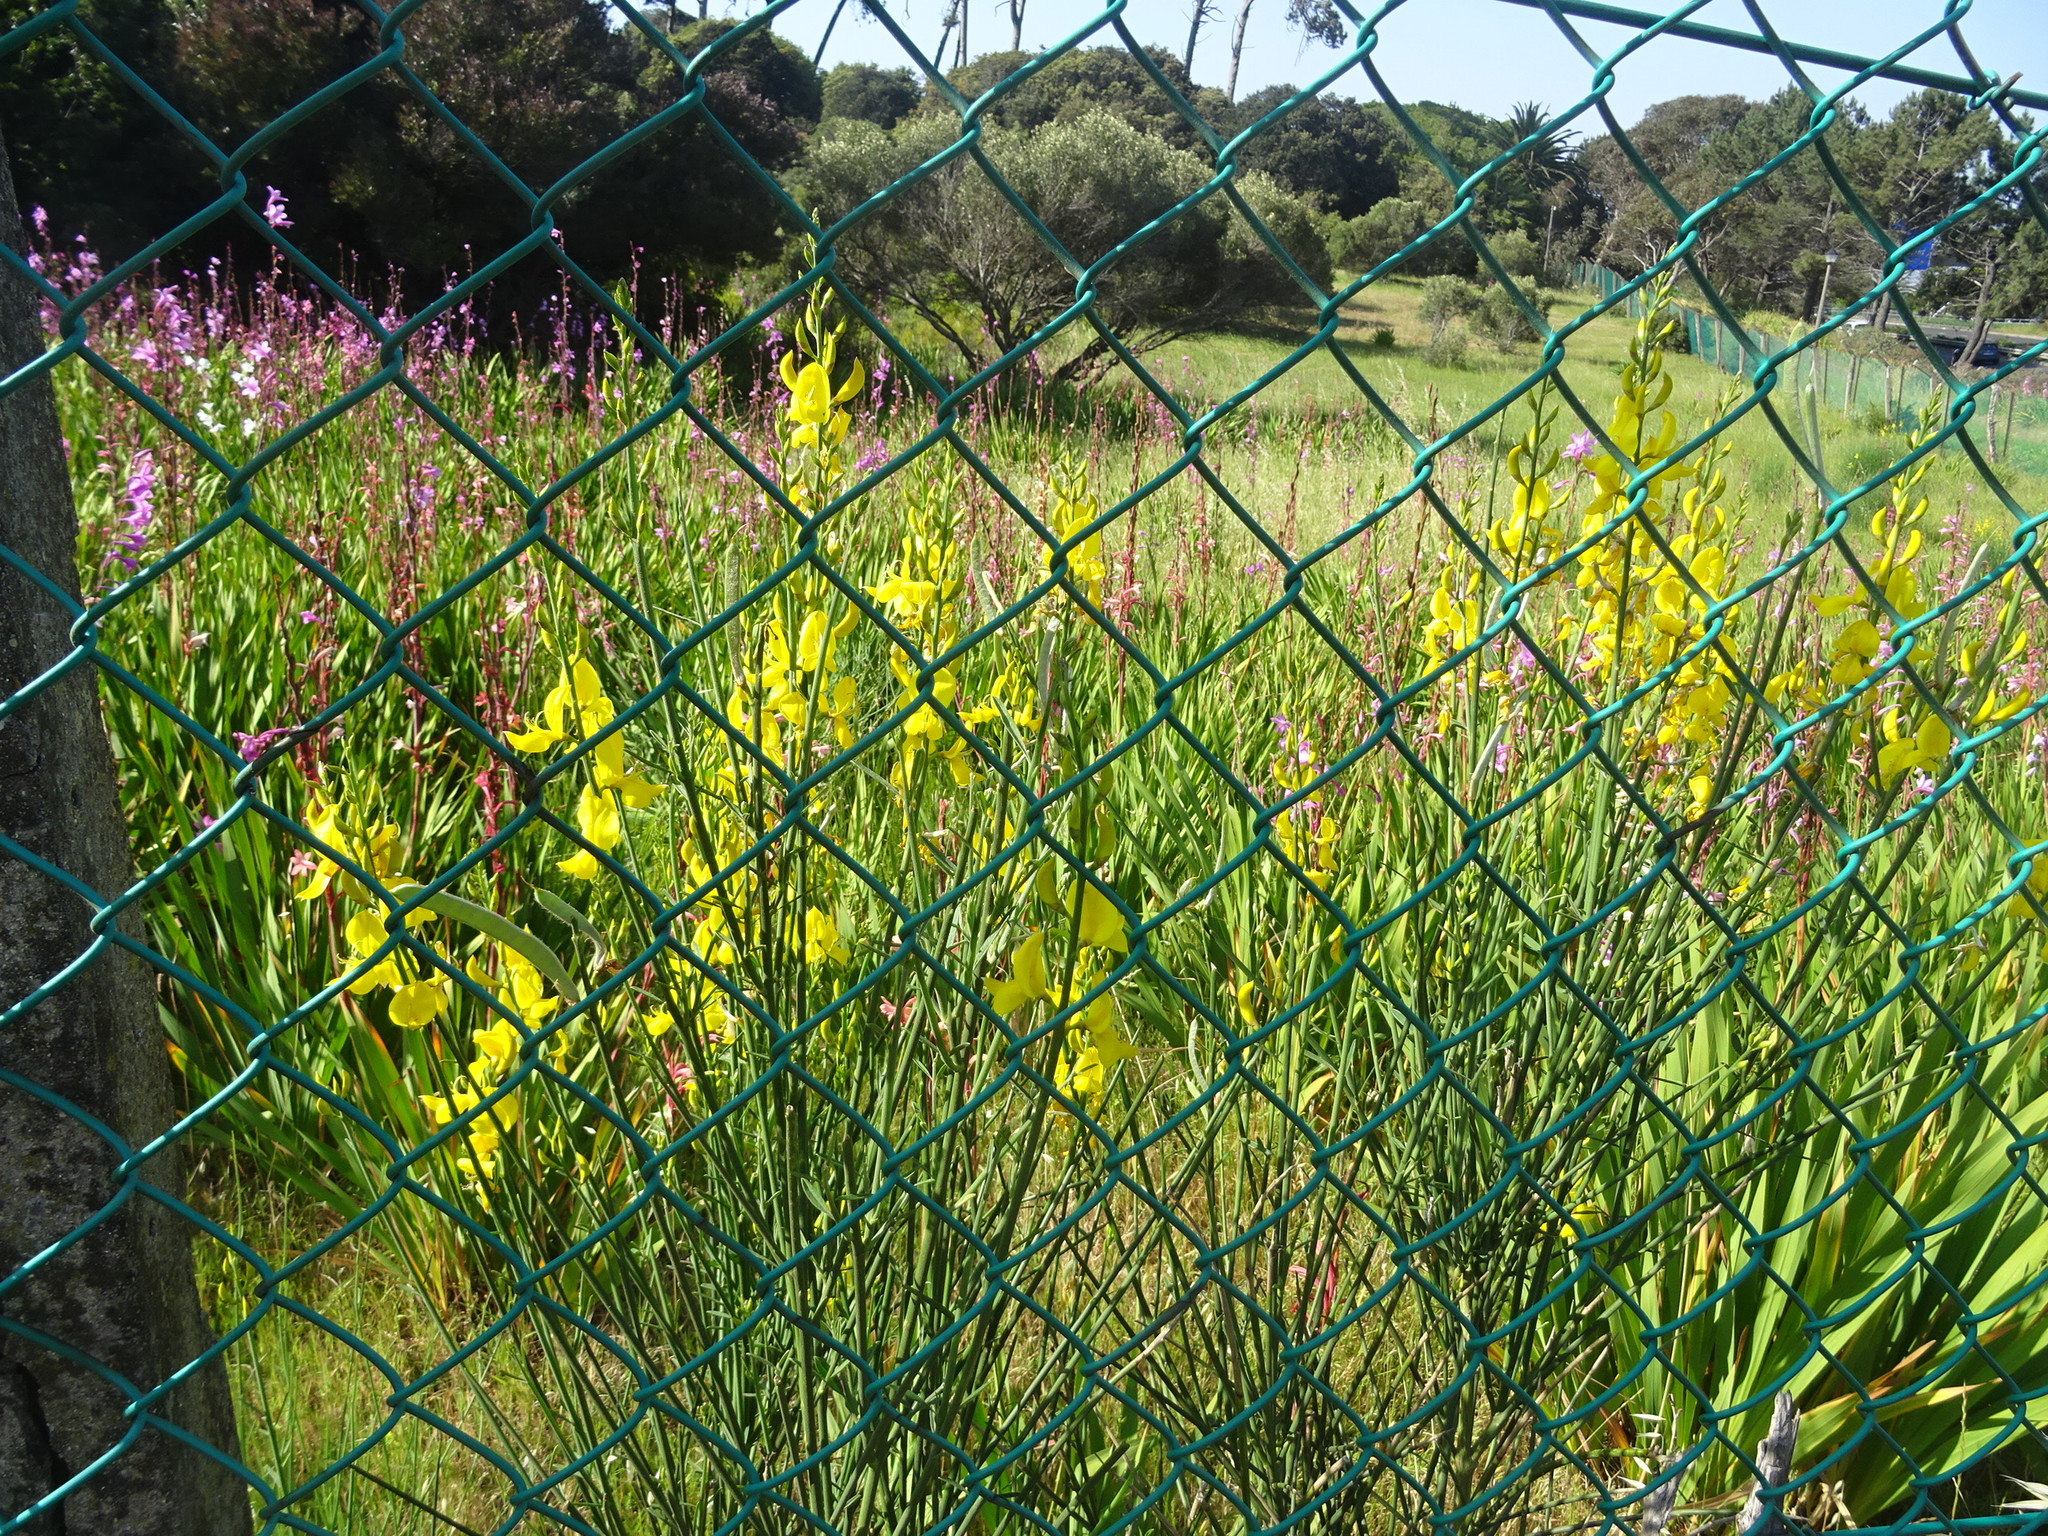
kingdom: Plantae
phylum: Tracheophyta
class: Magnoliopsida
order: Fabales
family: Fabaceae
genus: Spartium
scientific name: Spartium junceum
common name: Spanish broom
